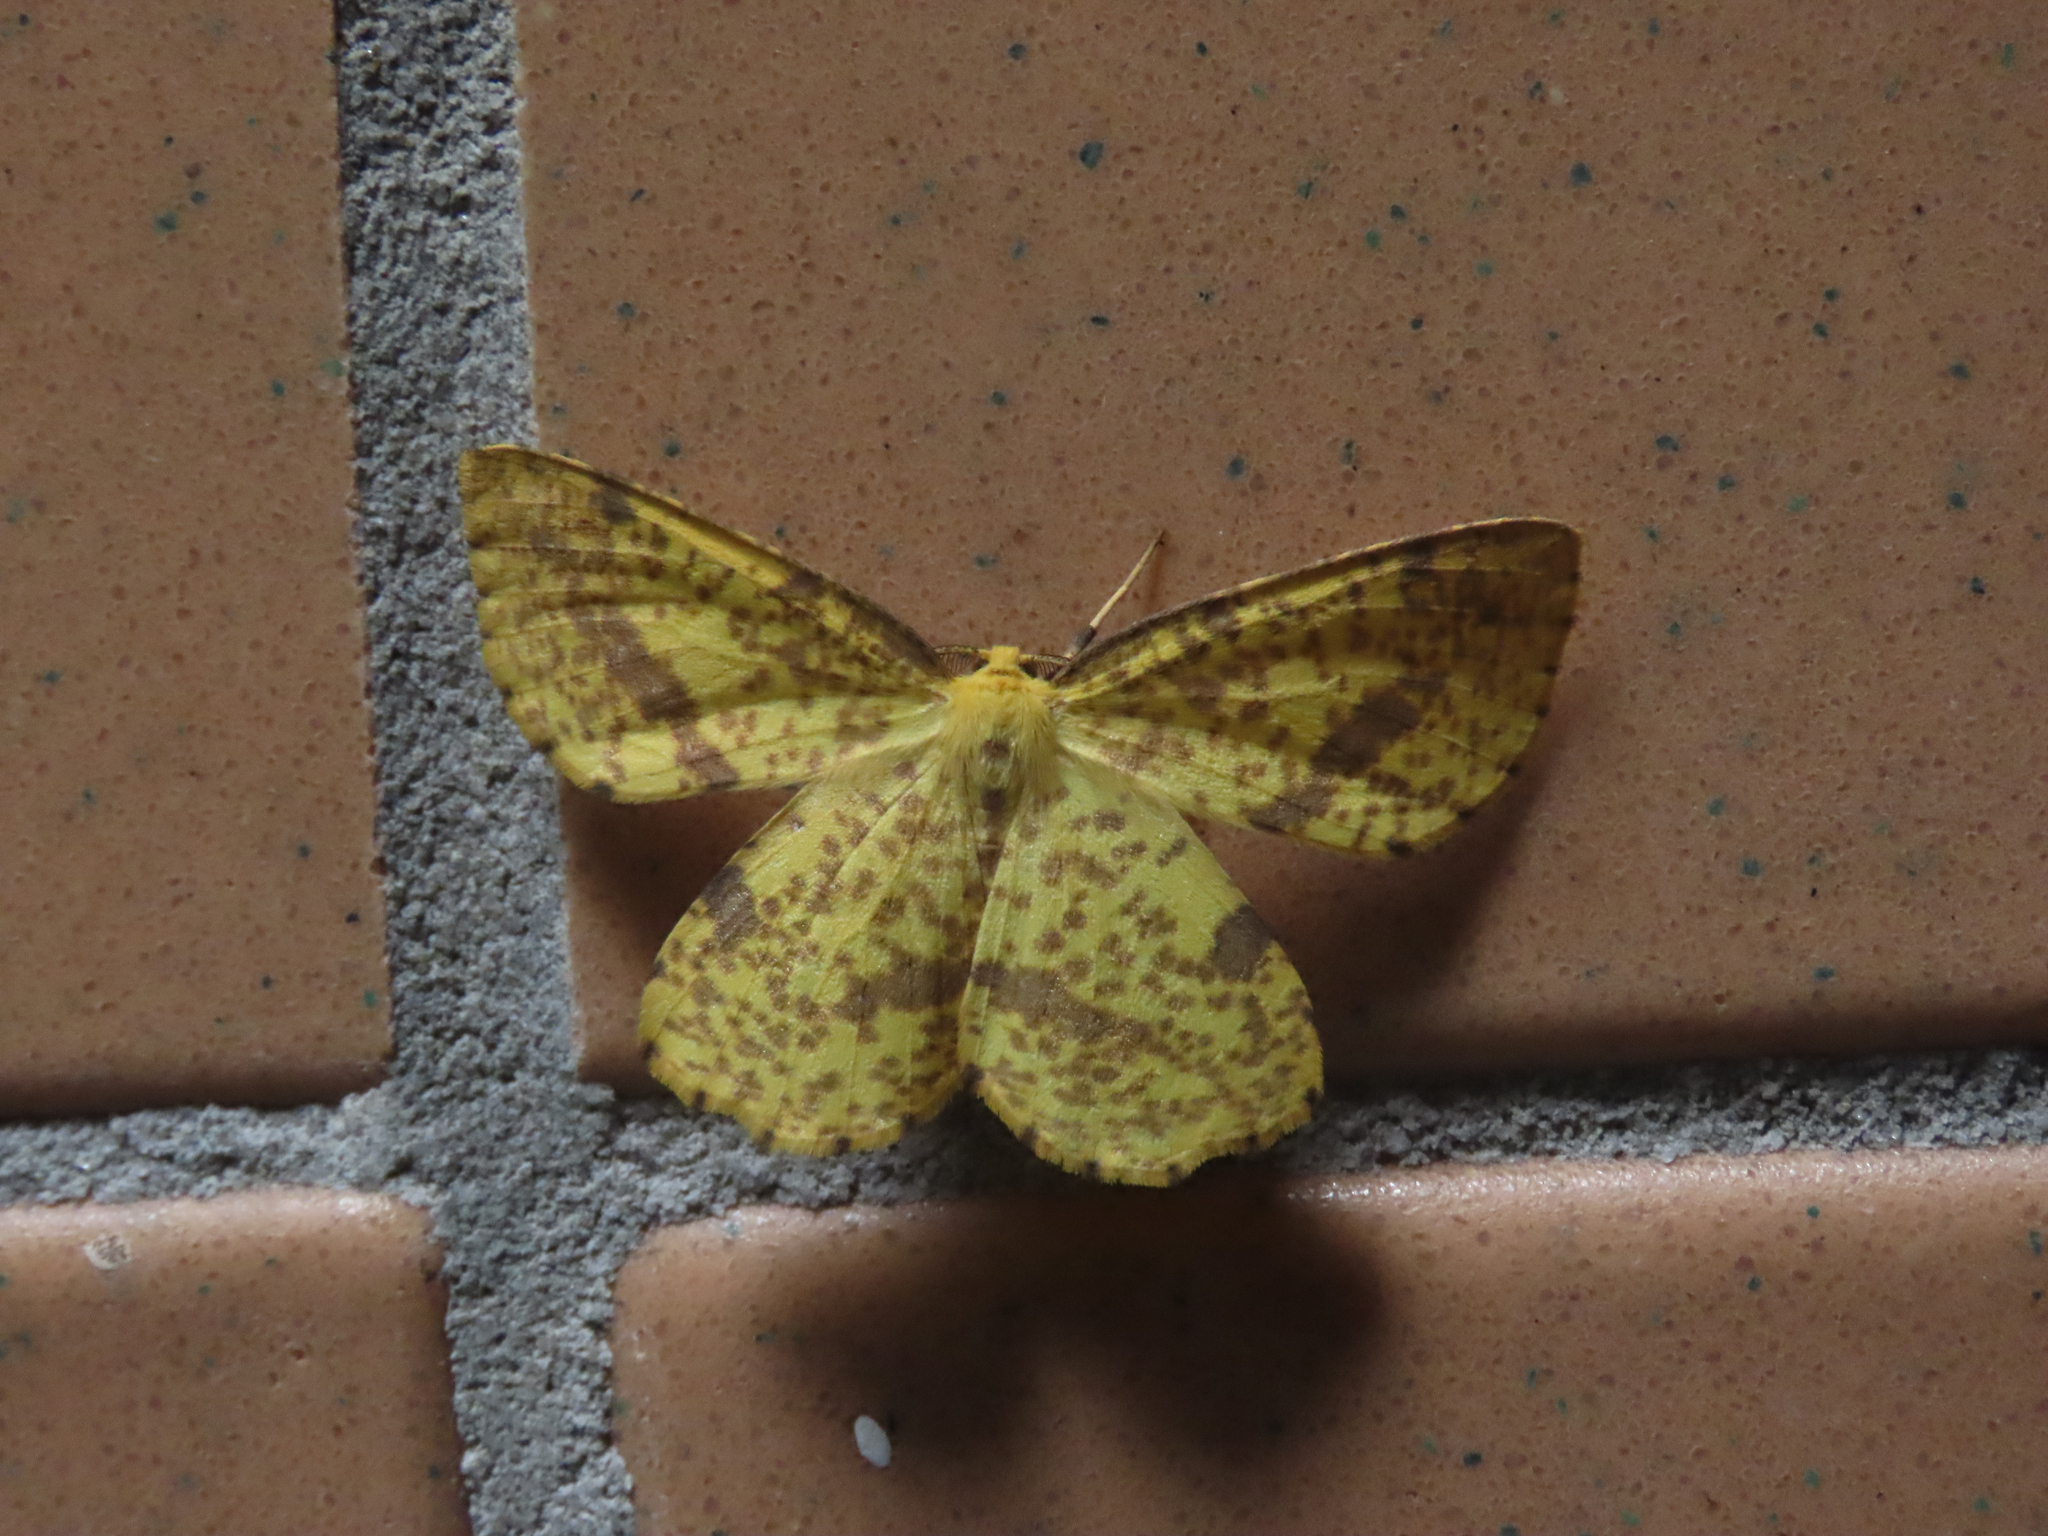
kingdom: Animalia
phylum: Arthropoda
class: Insecta
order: Lepidoptera
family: Geometridae
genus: Xanthotype
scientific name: Xanthotype
